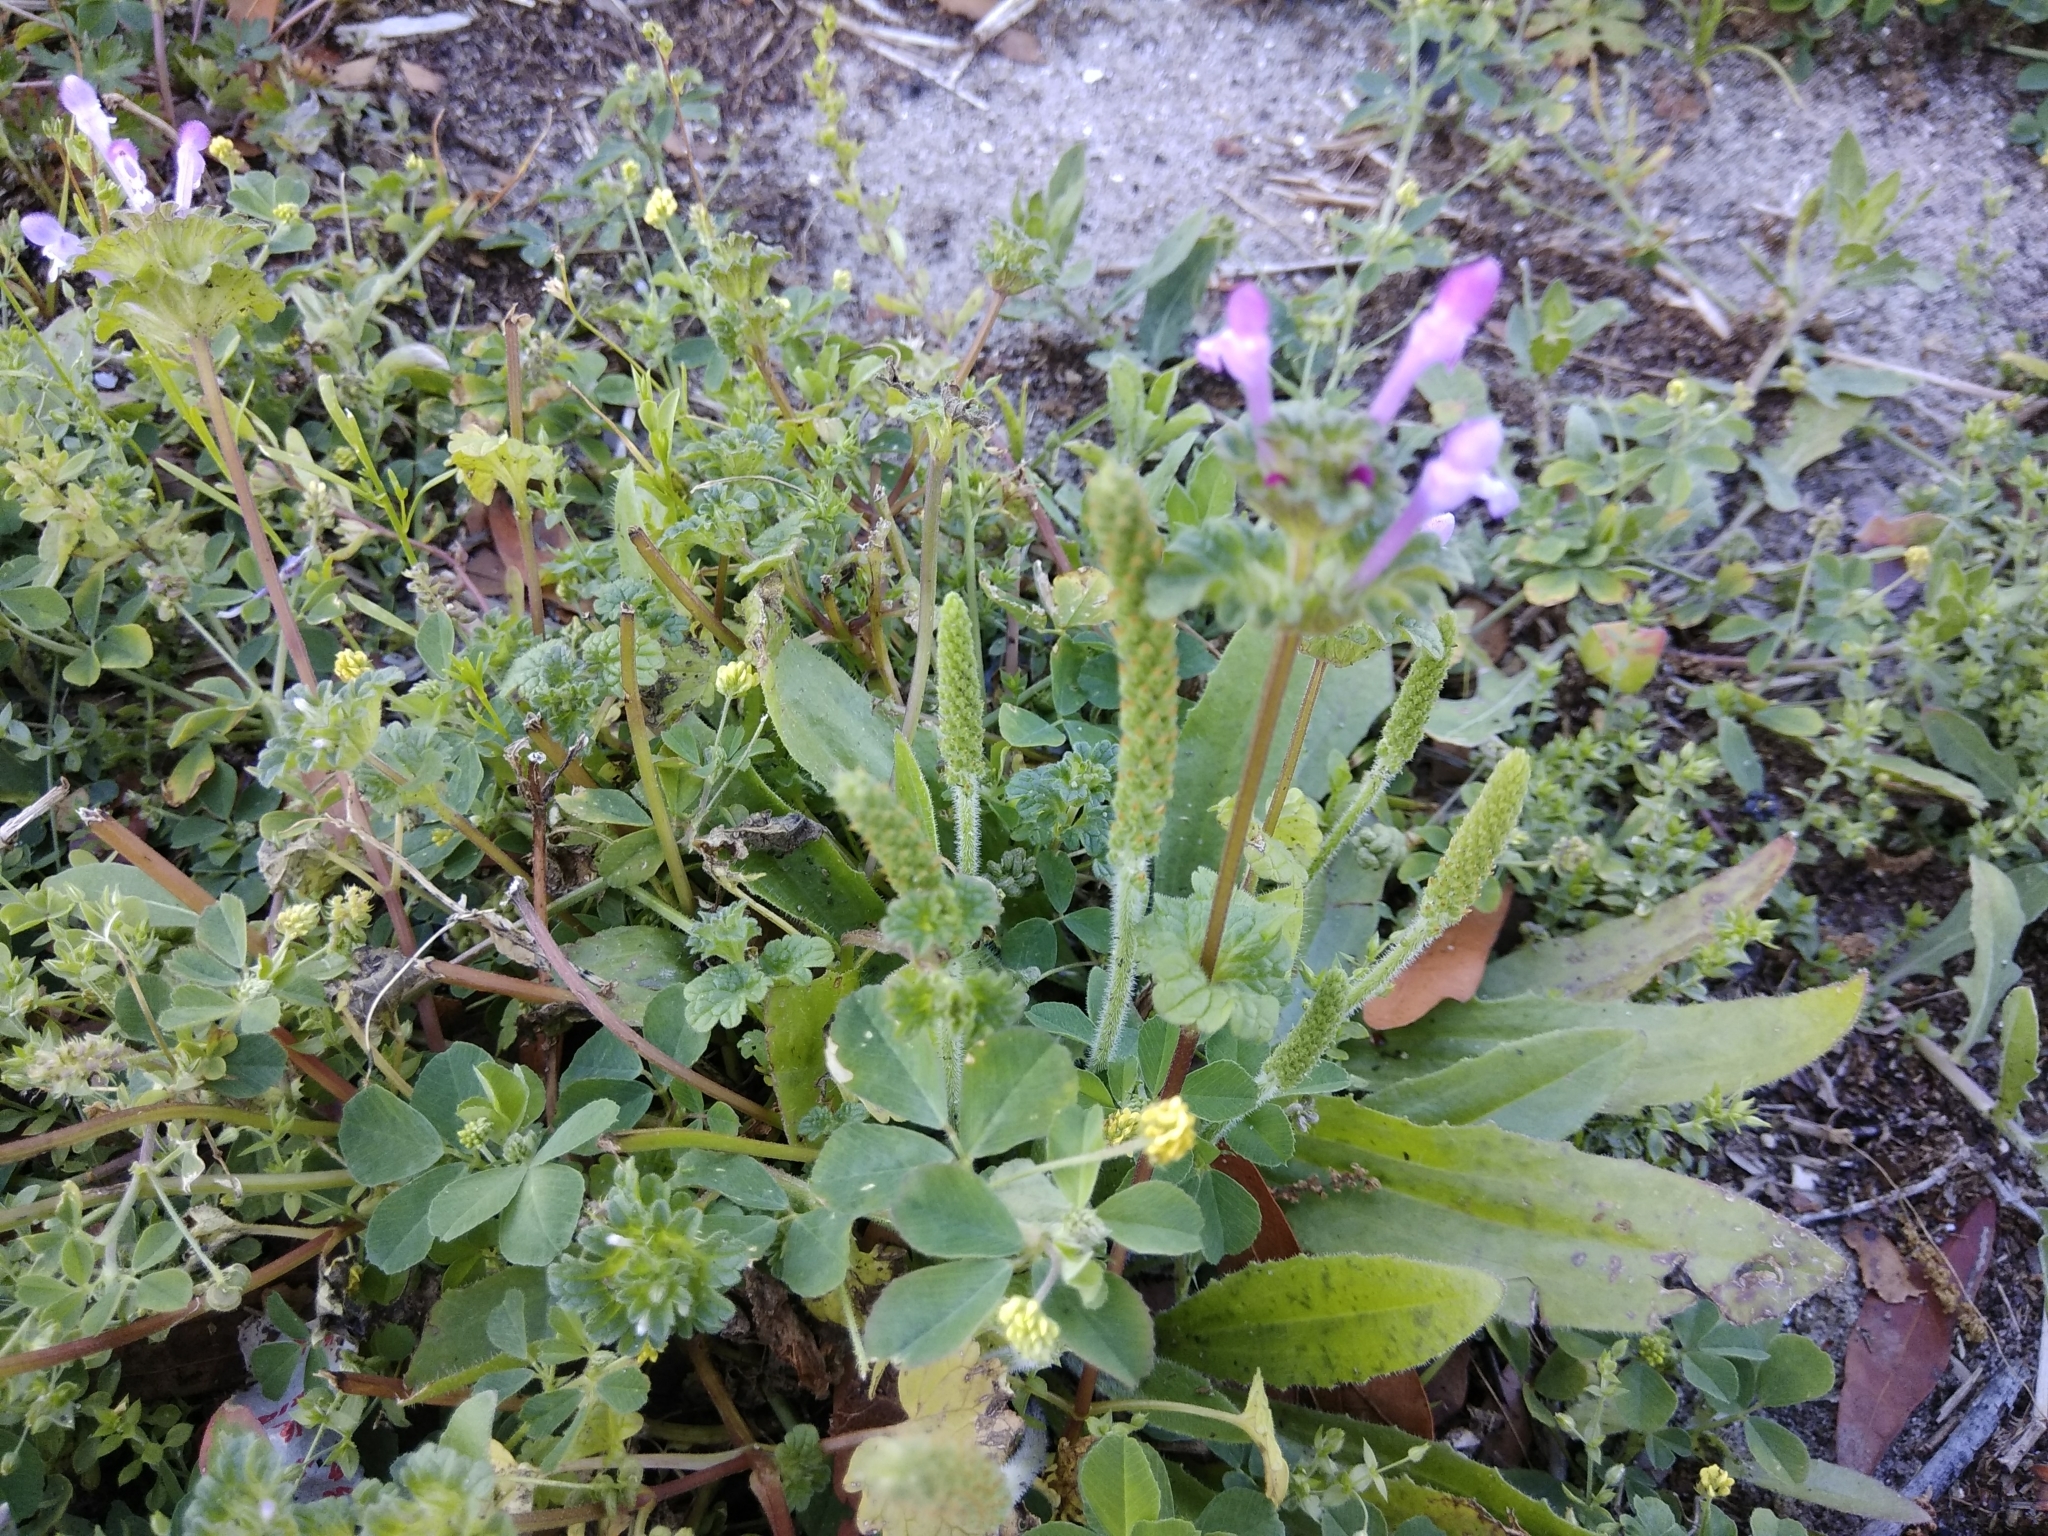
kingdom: Plantae
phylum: Tracheophyta
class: Magnoliopsida
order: Lamiales
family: Lamiaceae
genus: Lamium
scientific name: Lamium amplexicaule
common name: Henbit dead-nettle
